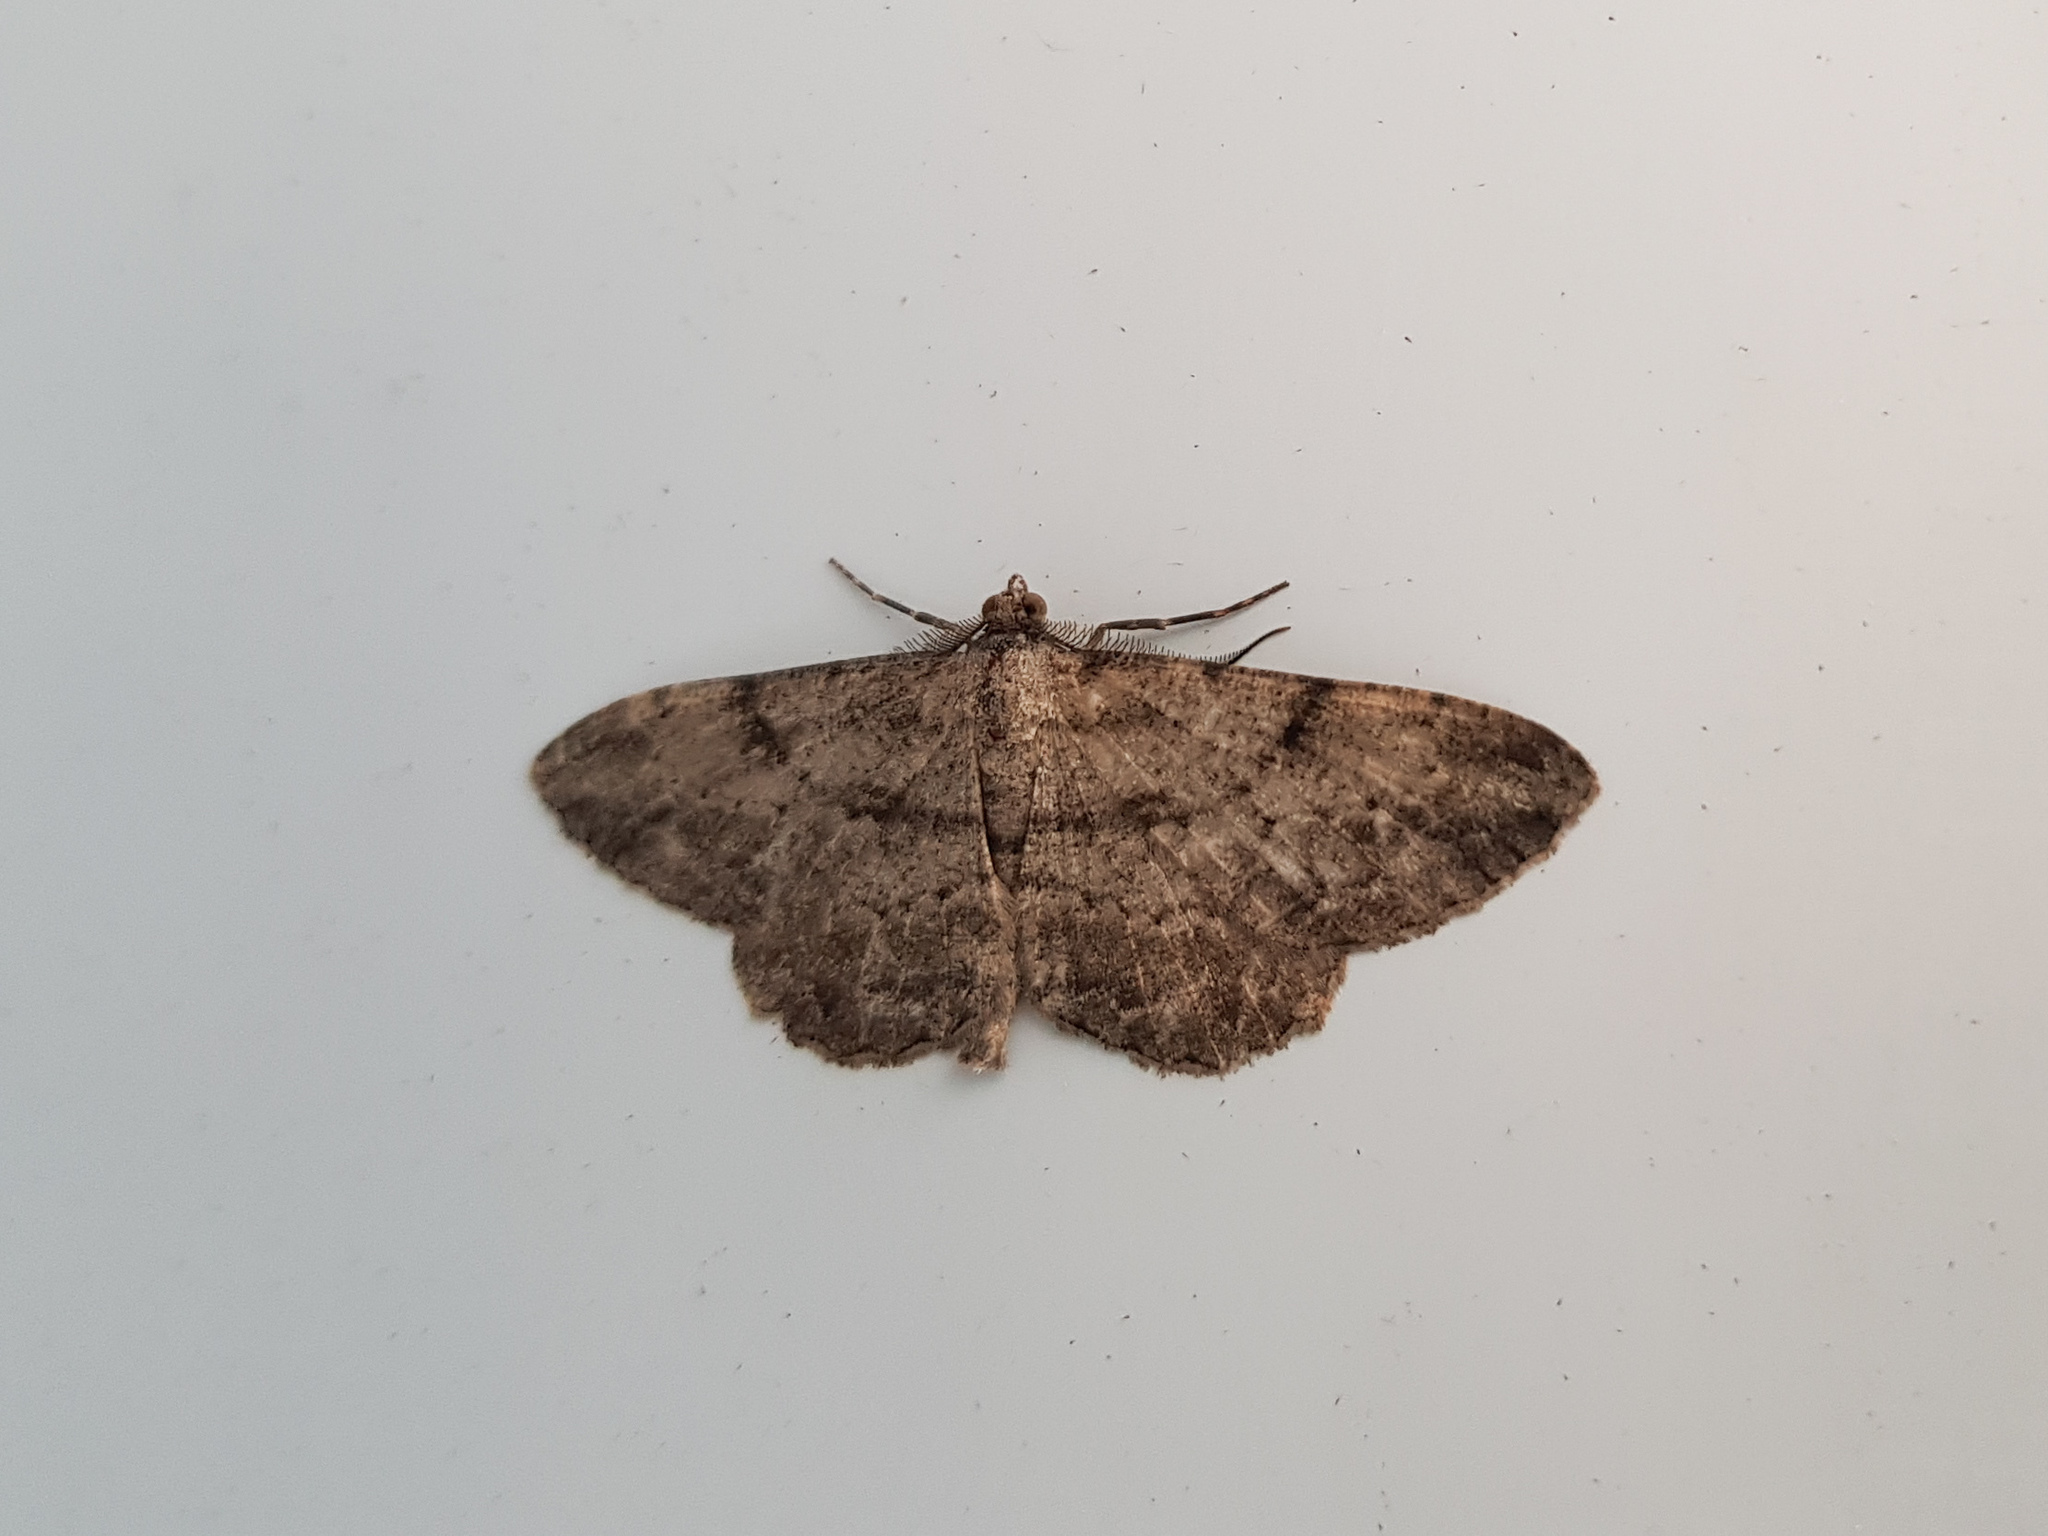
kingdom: Animalia
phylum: Arthropoda
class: Insecta
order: Lepidoptera
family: Geometridae
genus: Peribatodes
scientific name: Peribatodes rhomboidaria
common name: Willow beauty
